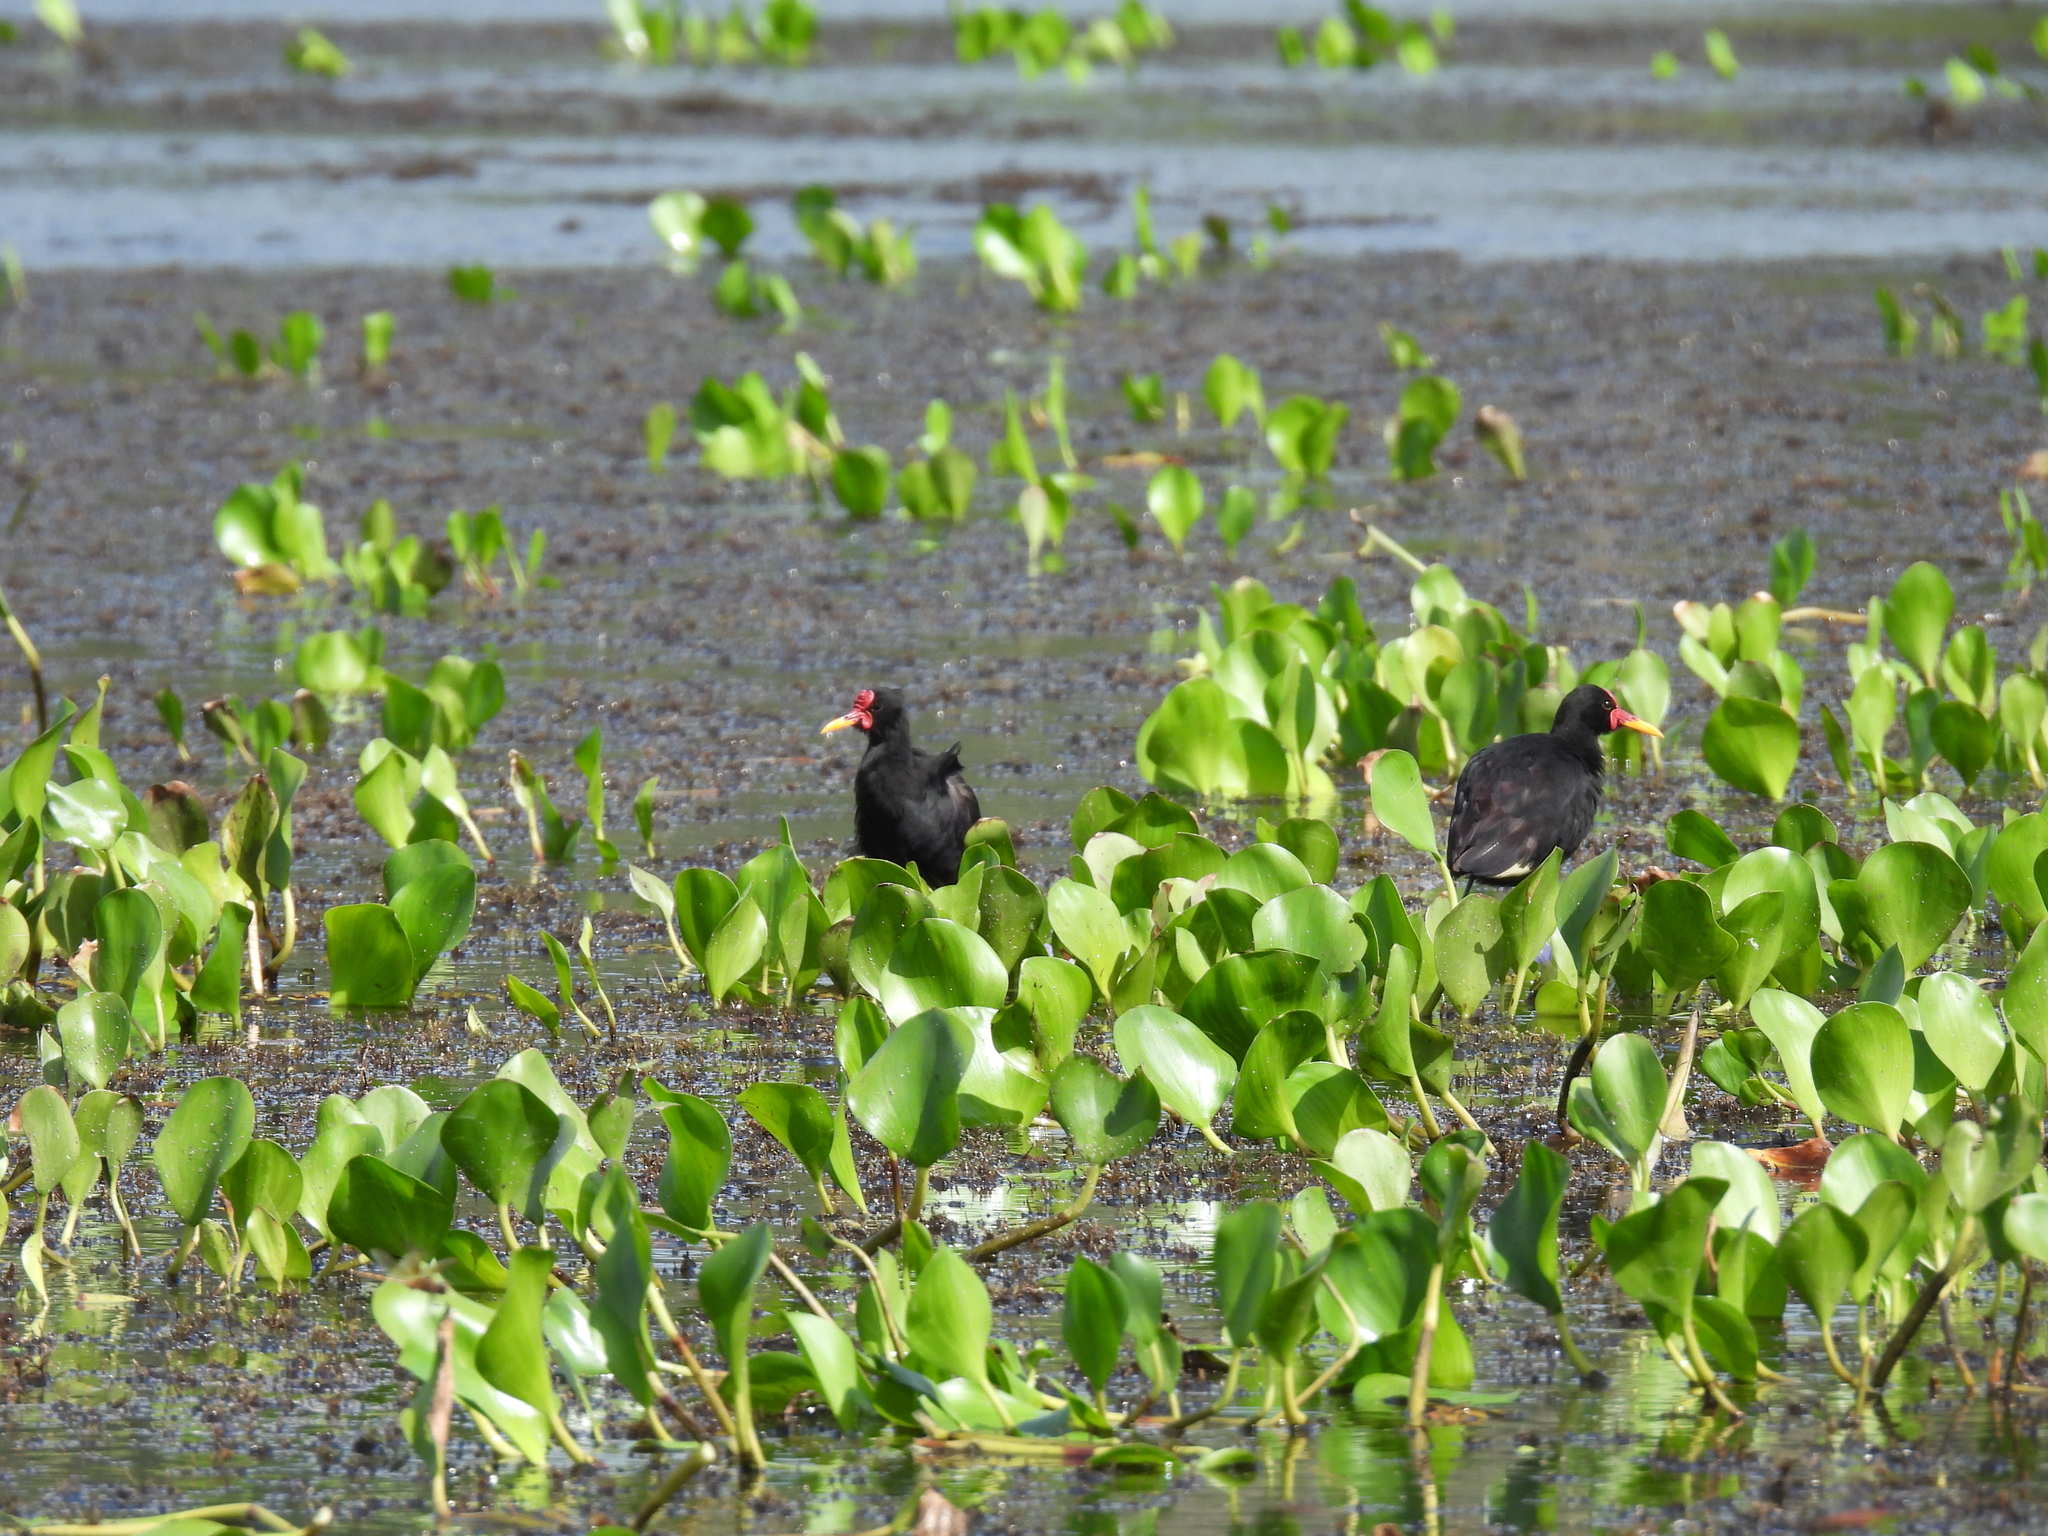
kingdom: Animalia
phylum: Chordata
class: Aves
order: Charadriiformes
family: Jacanidae
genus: Jacana
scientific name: Jacana jacana
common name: Wattled jacana
